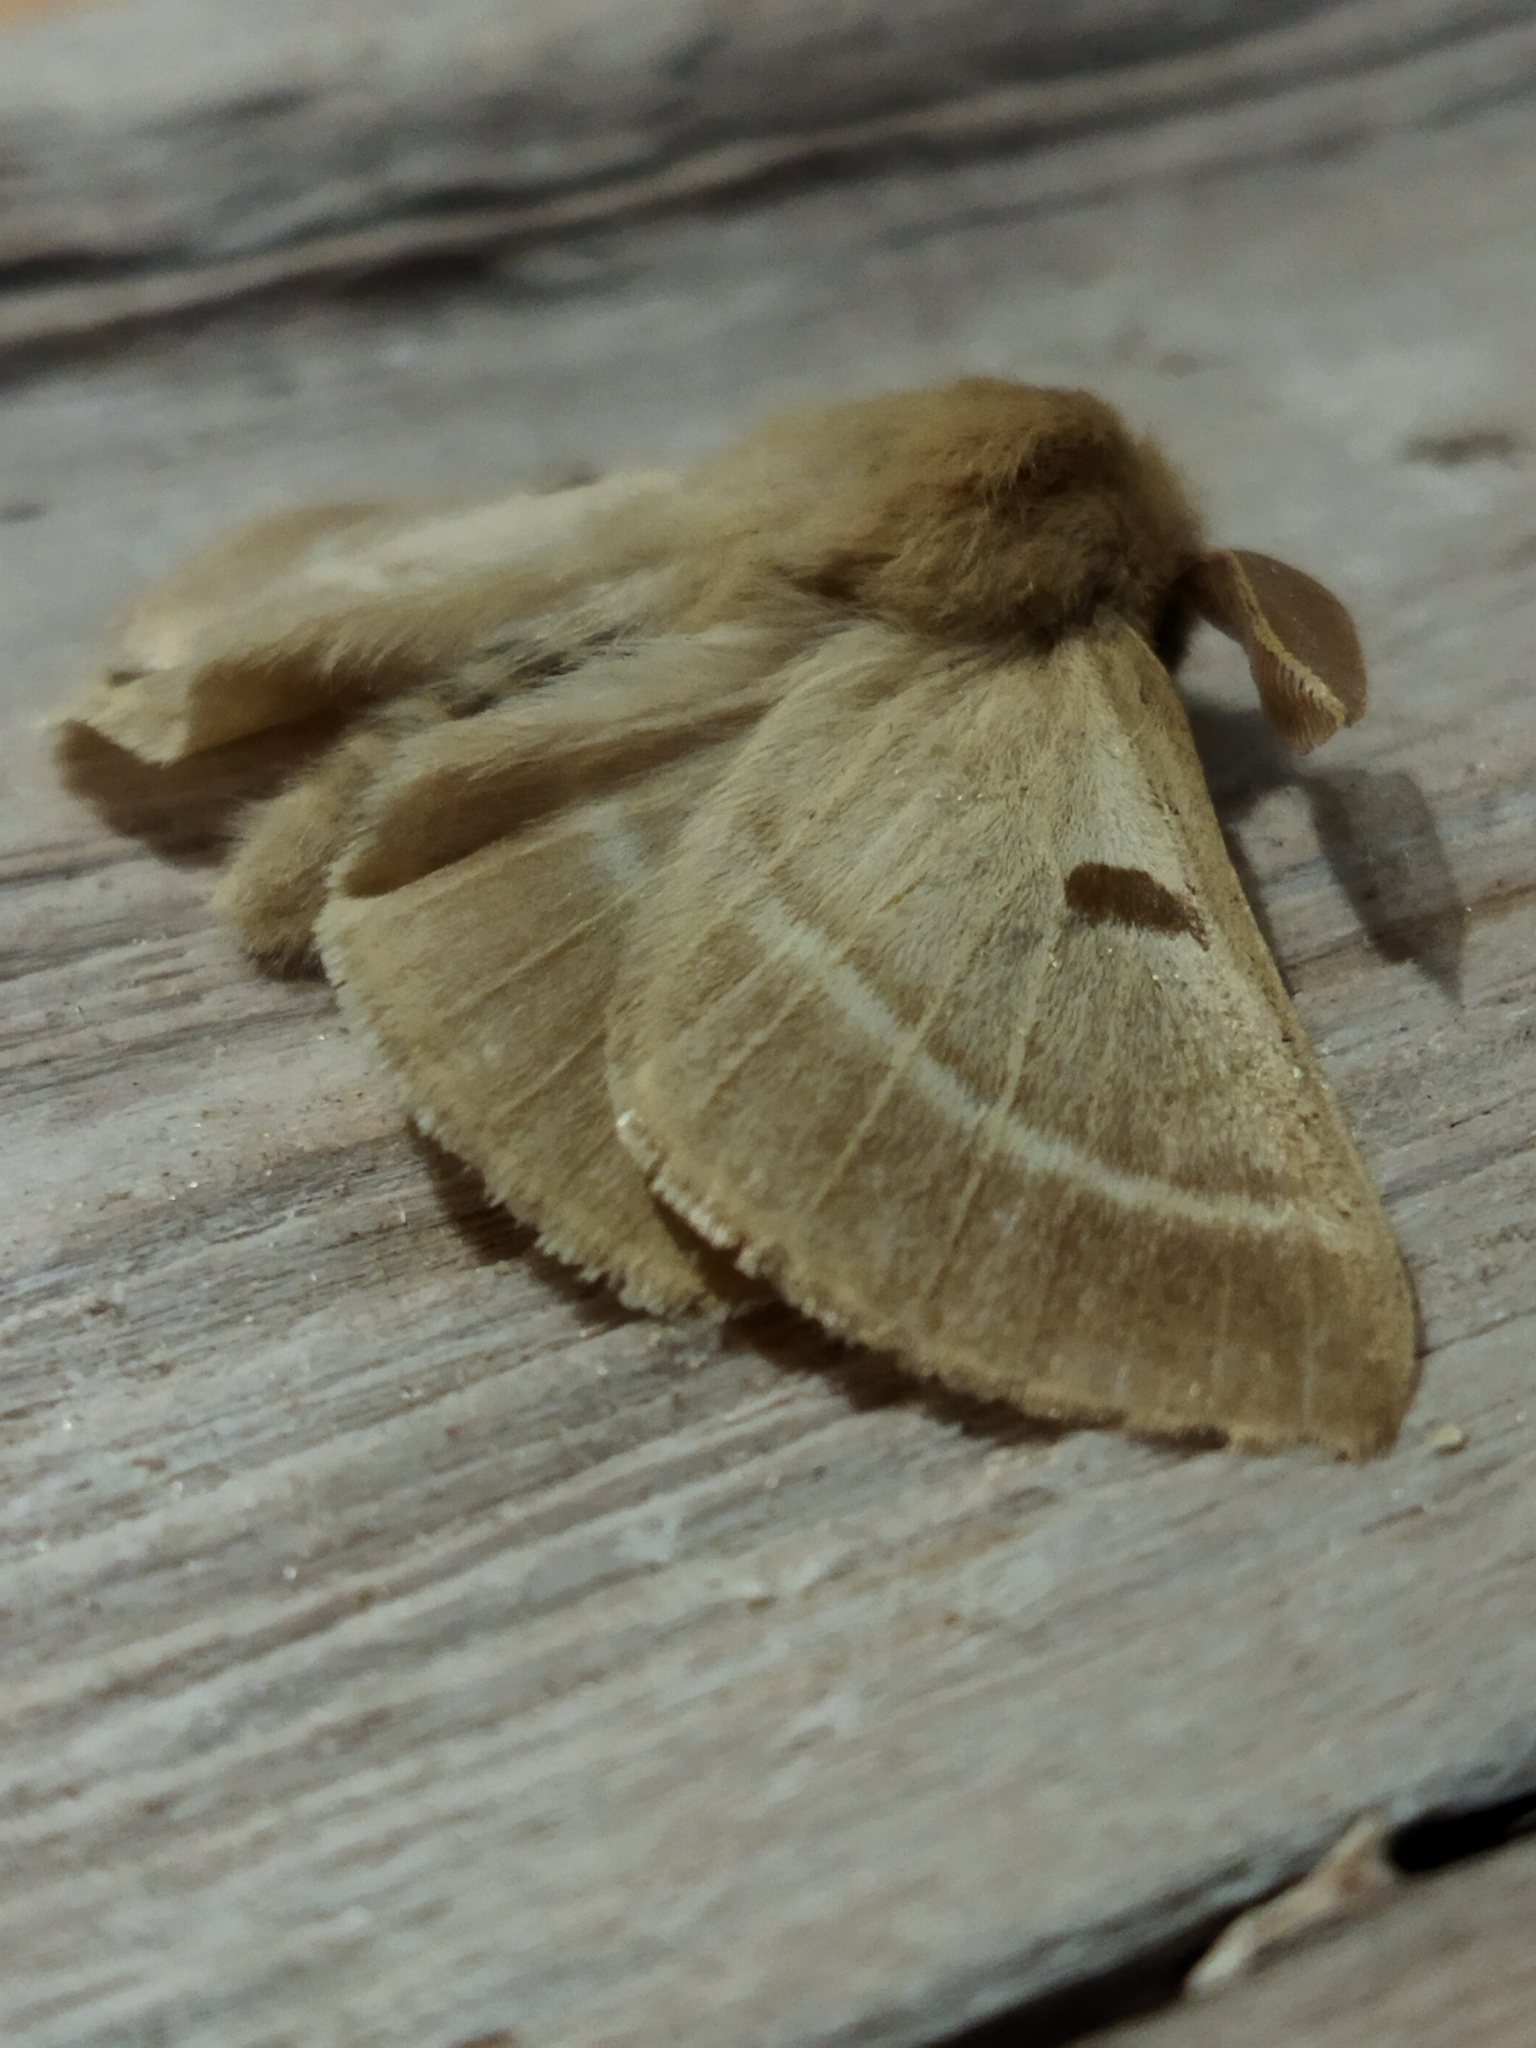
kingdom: Animalia
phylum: Arthropoda
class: Insecta
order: Lepidoptera
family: Brahmaeidae
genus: Lemonia
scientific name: Lemonia balcanica
